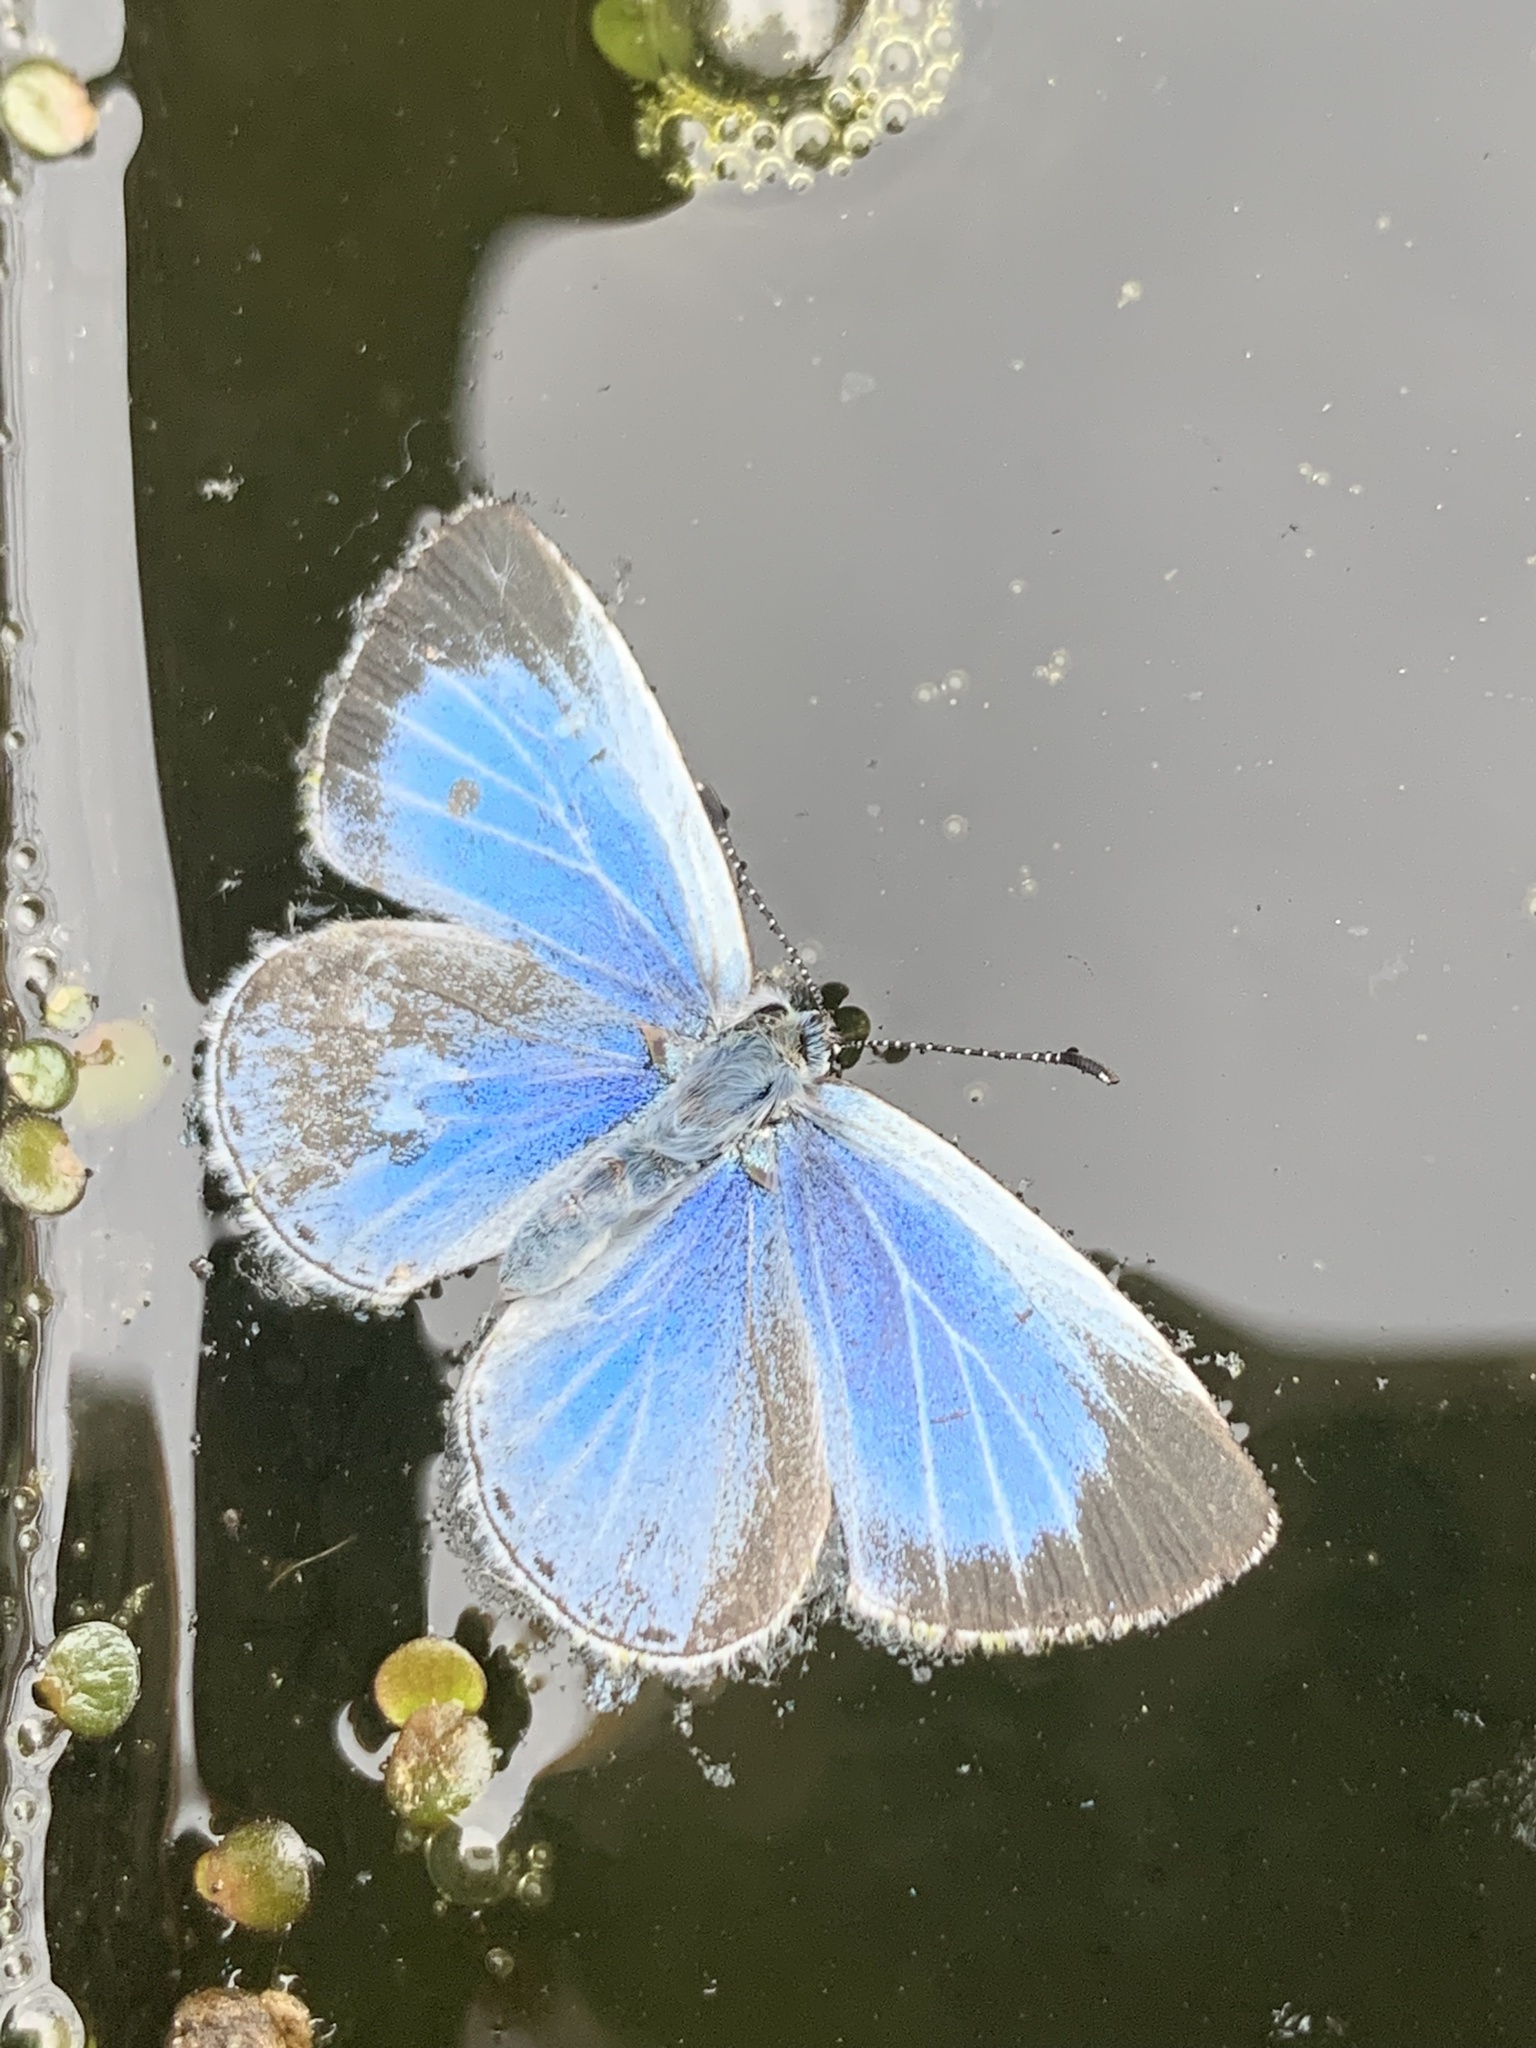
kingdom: Animalia
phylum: Arthropoda
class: Insecta
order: Lepidoptera
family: Lycaenidae
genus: Celastrina
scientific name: Celastrina argiolus
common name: Holly blue
